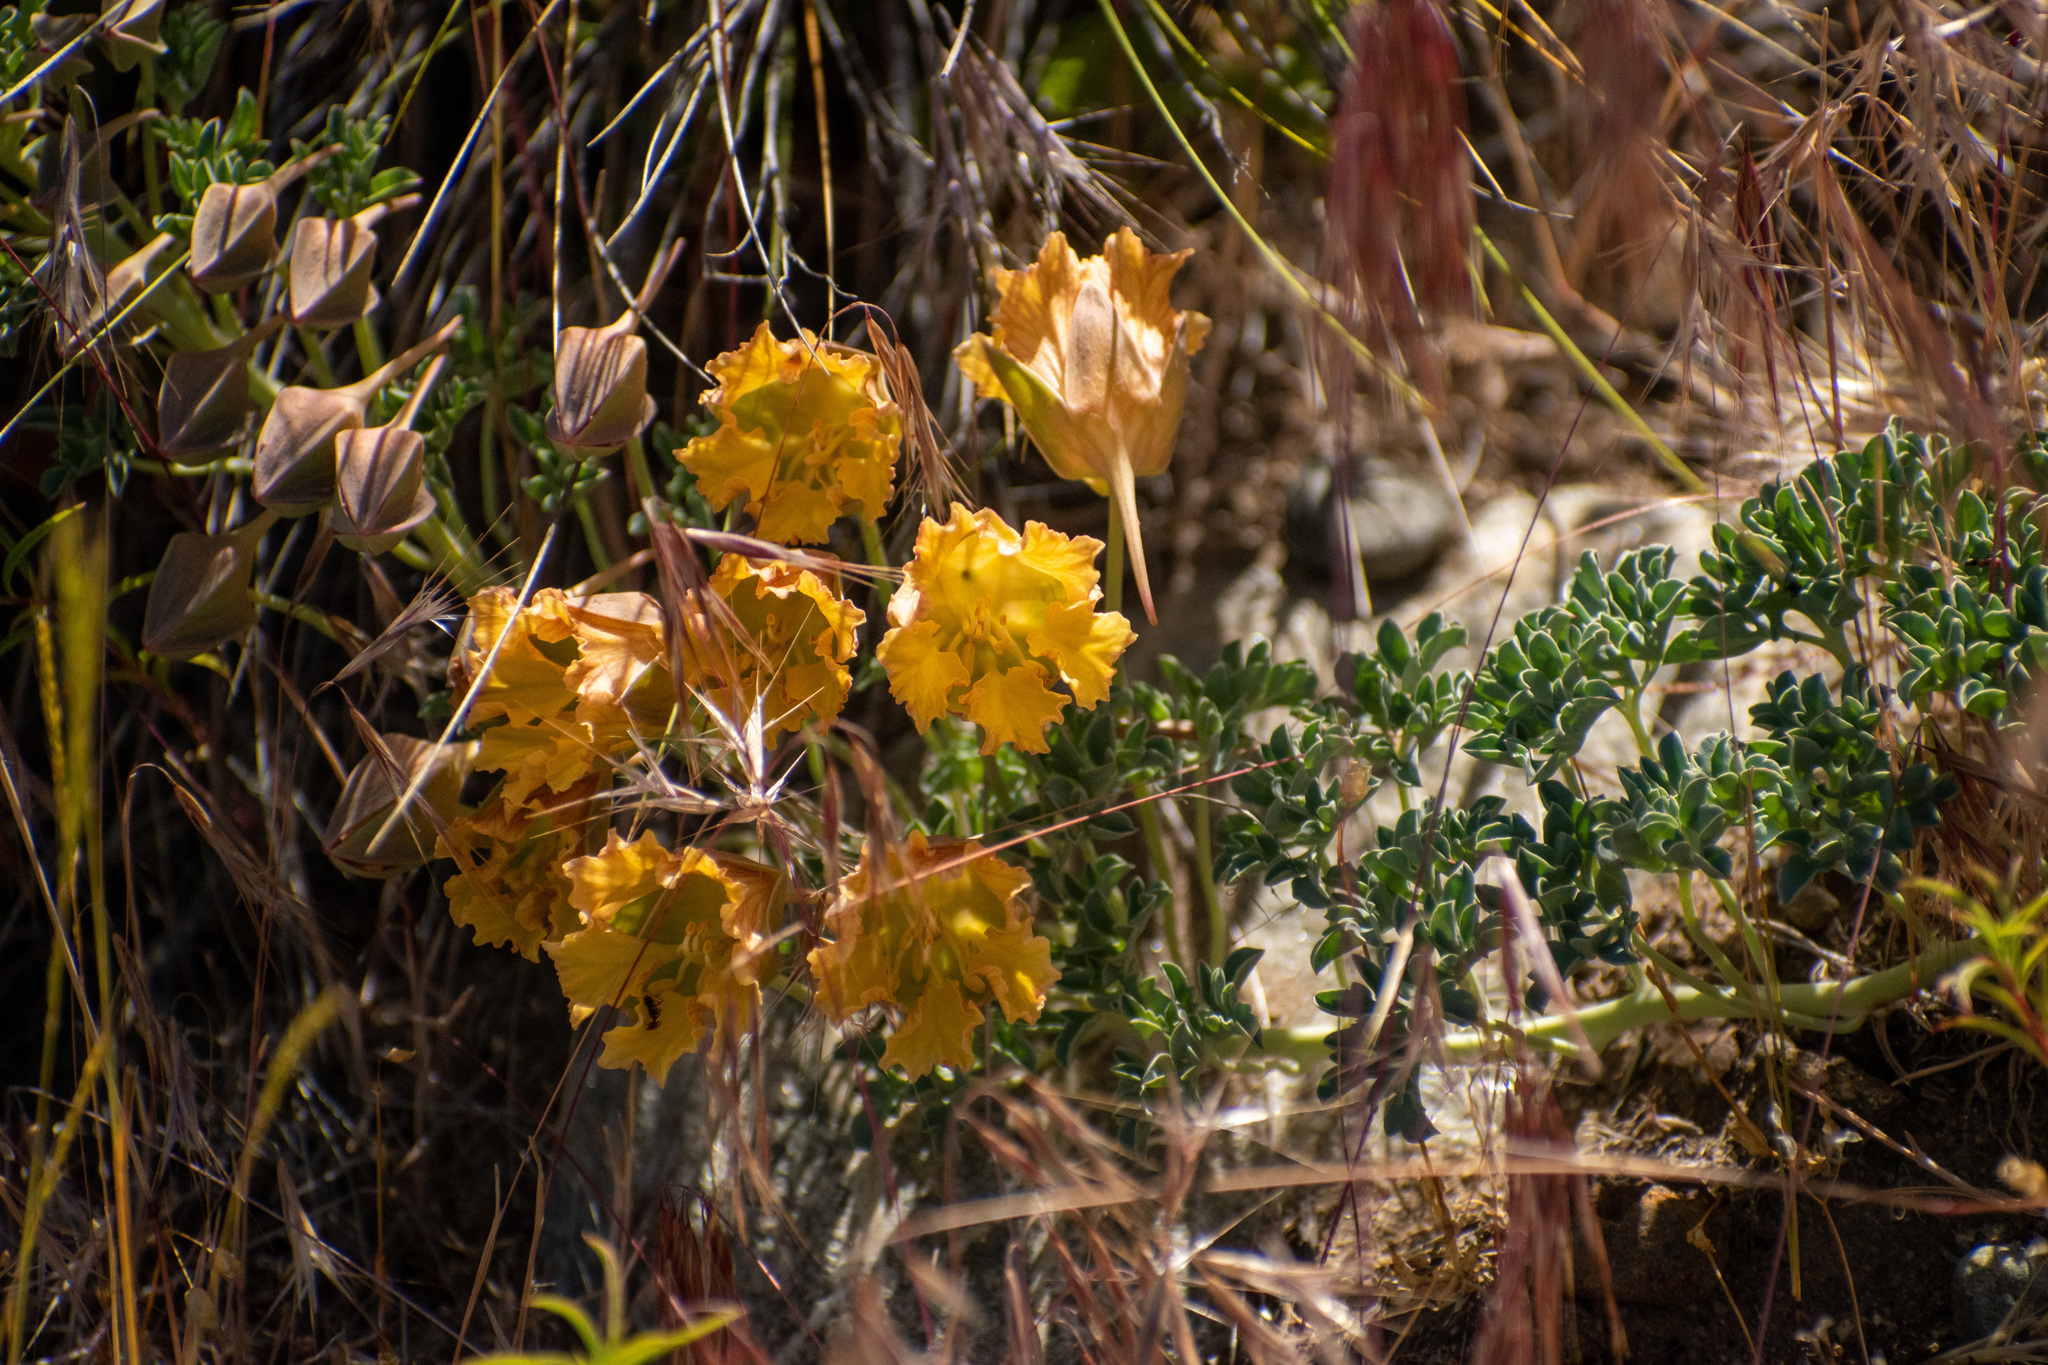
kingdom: Plantae
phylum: Tracheophyta
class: Magnoliopsida
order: Brassicales
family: Tropaeolaceae
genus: Tropaeolum
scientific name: Tropaeolum incisum
